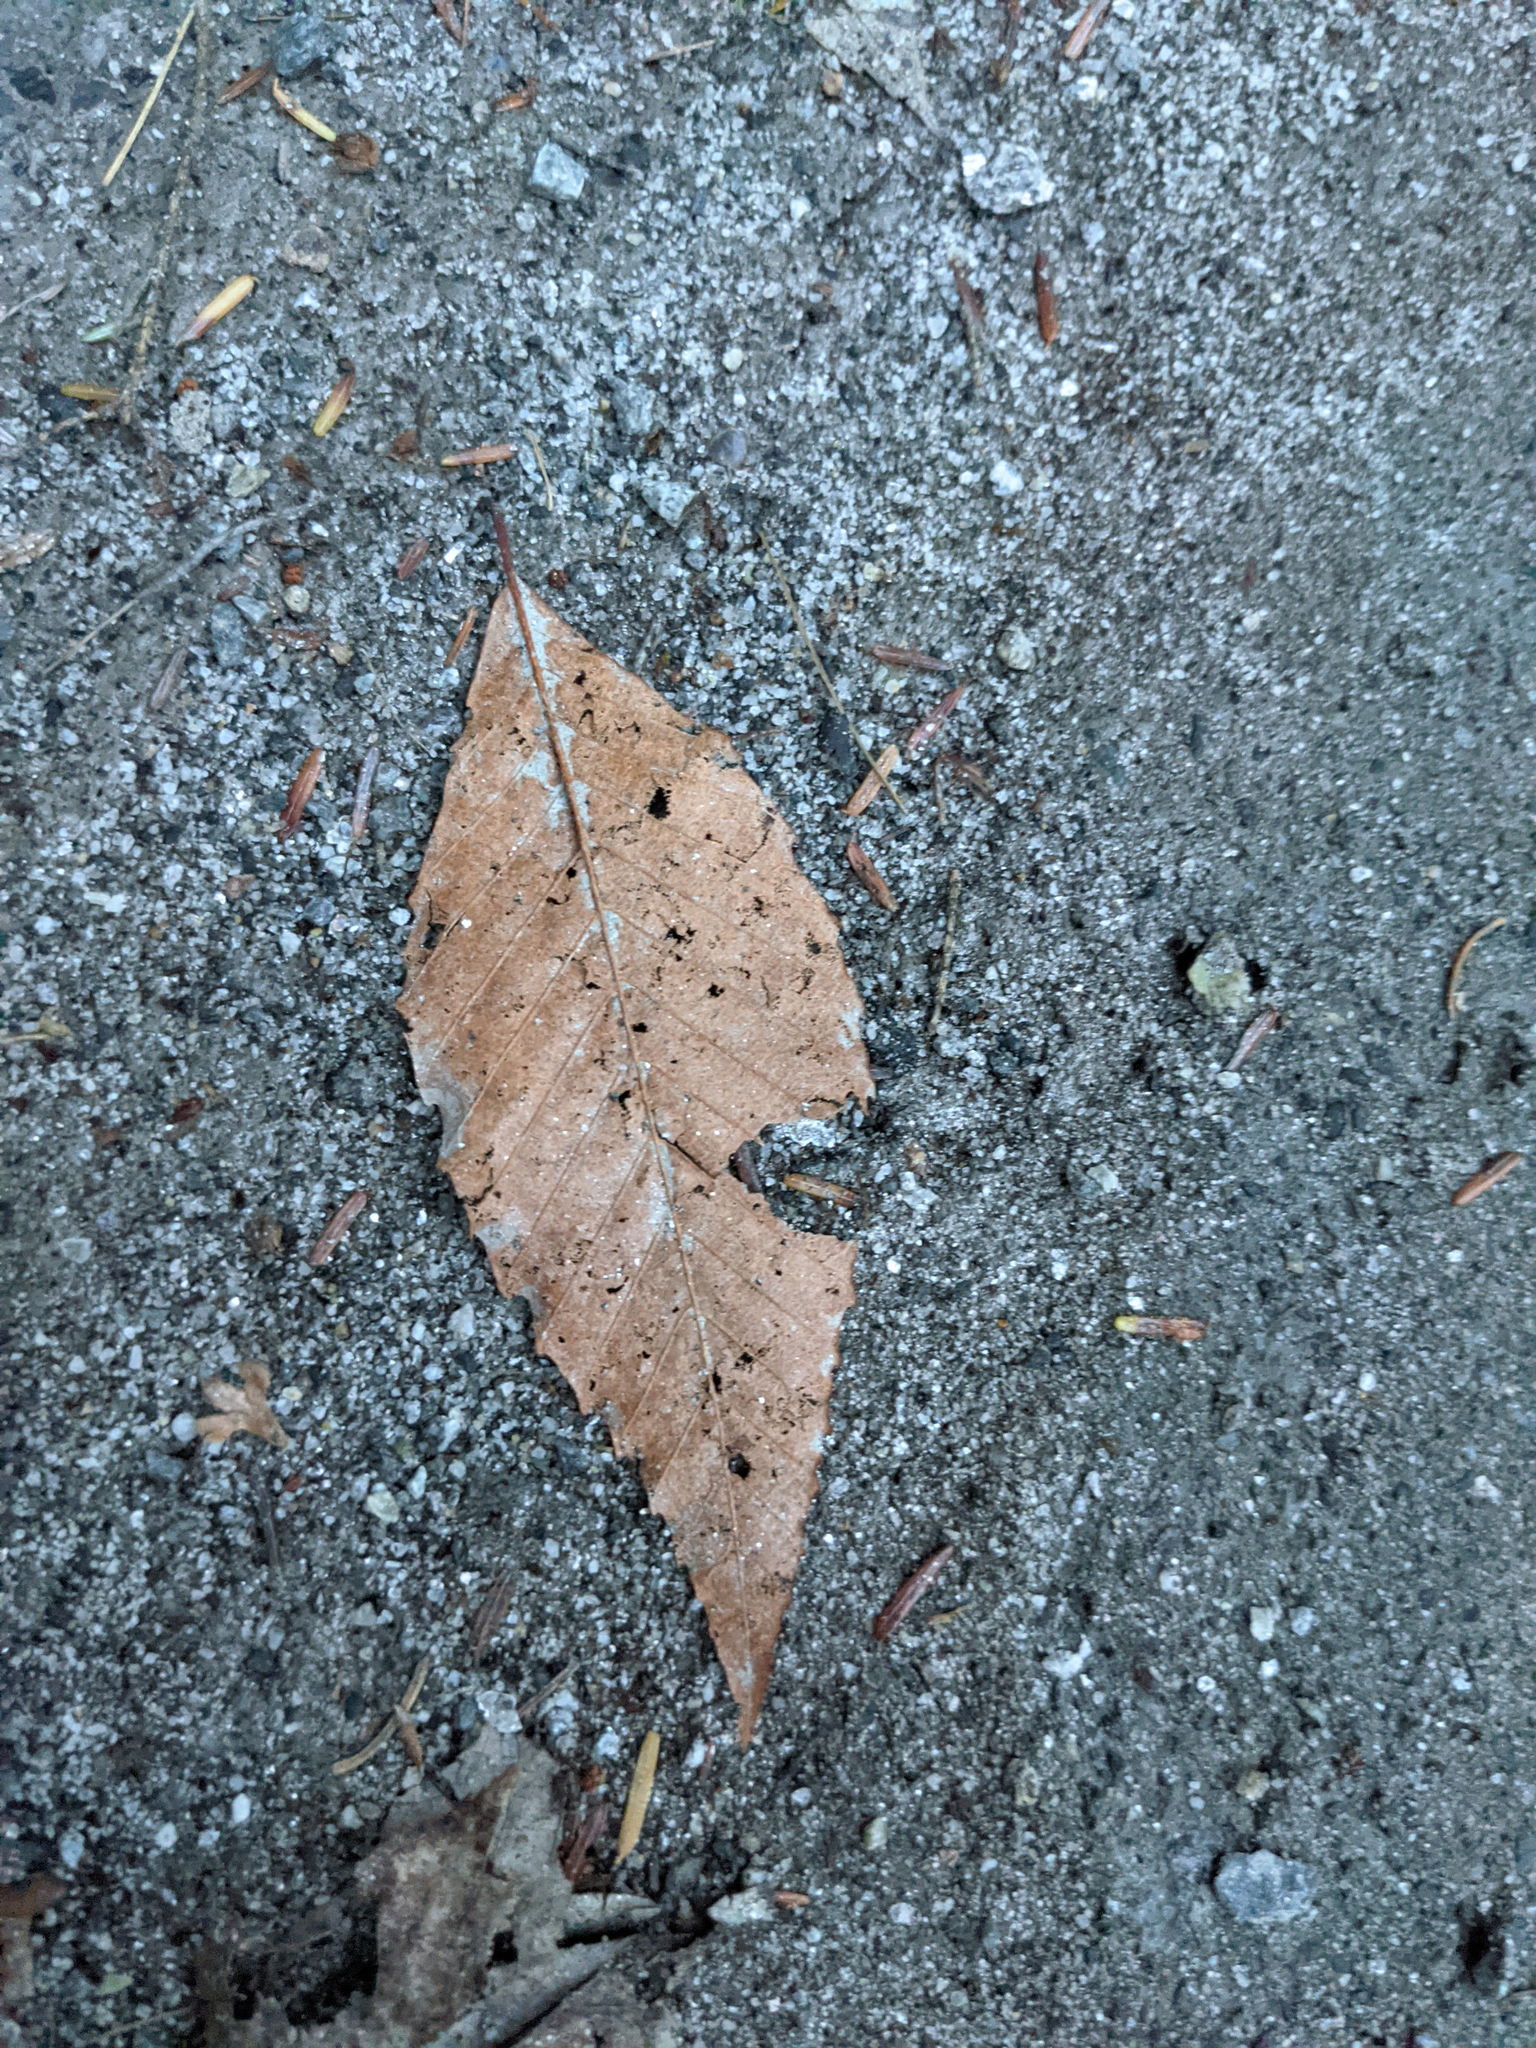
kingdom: Plantae
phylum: Tracheophyta
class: Magnoliopsida
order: Fagales
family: Fagaceae
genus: Fagus
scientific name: Fagus grandifolia
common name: American beech
